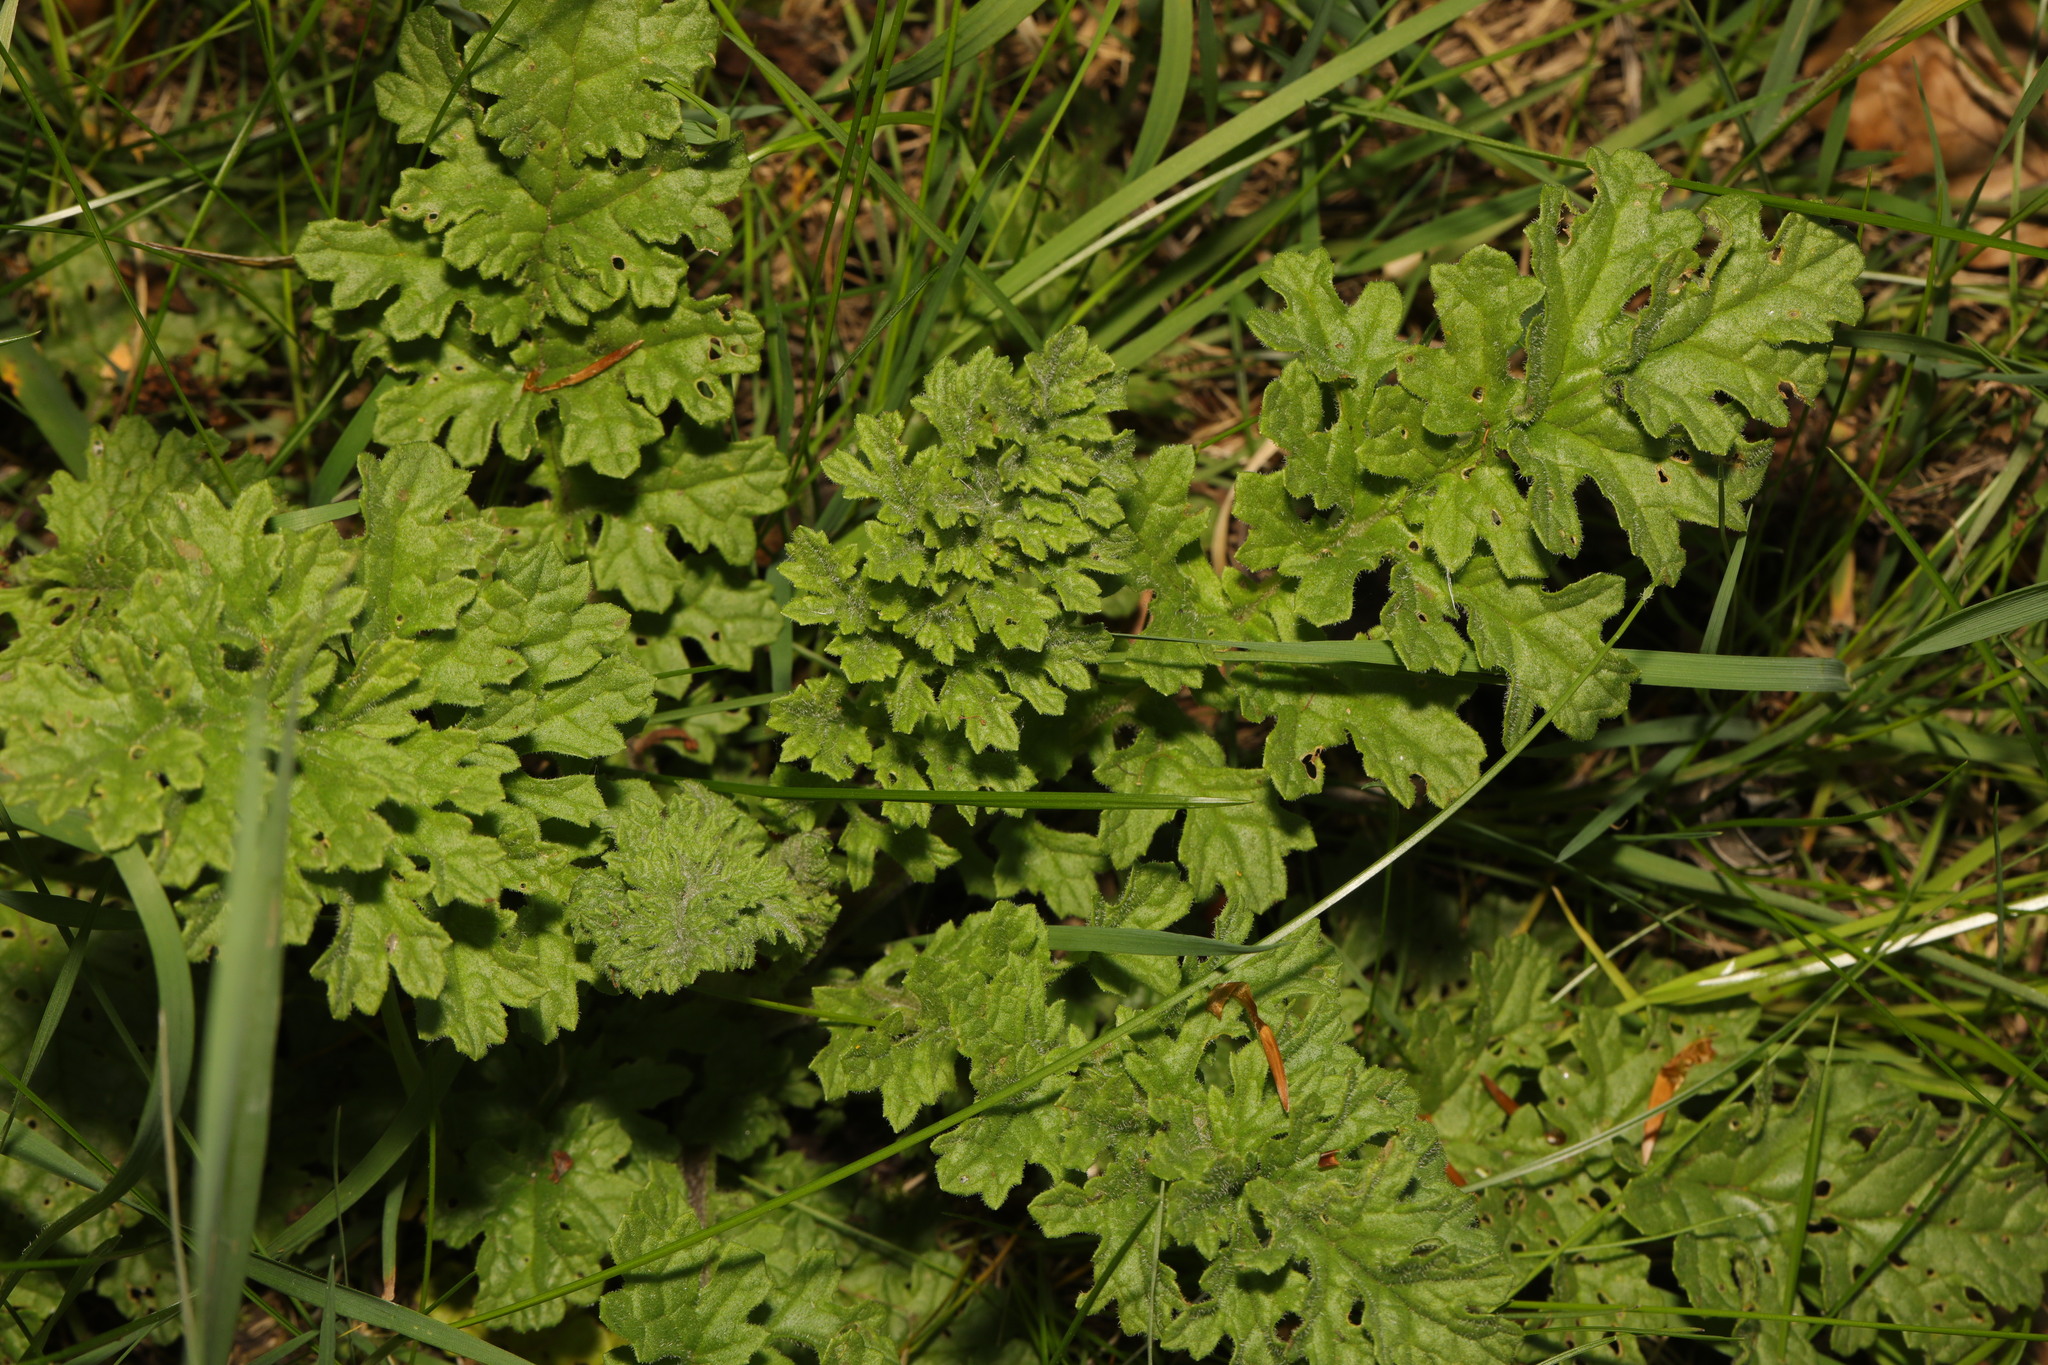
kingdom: Plantae
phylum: Tracheophyta
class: Magnoliopsida
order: Asterales
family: Asteraceae
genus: Jacobaea
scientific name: Jacobaea vulgaris
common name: Stinking willie
